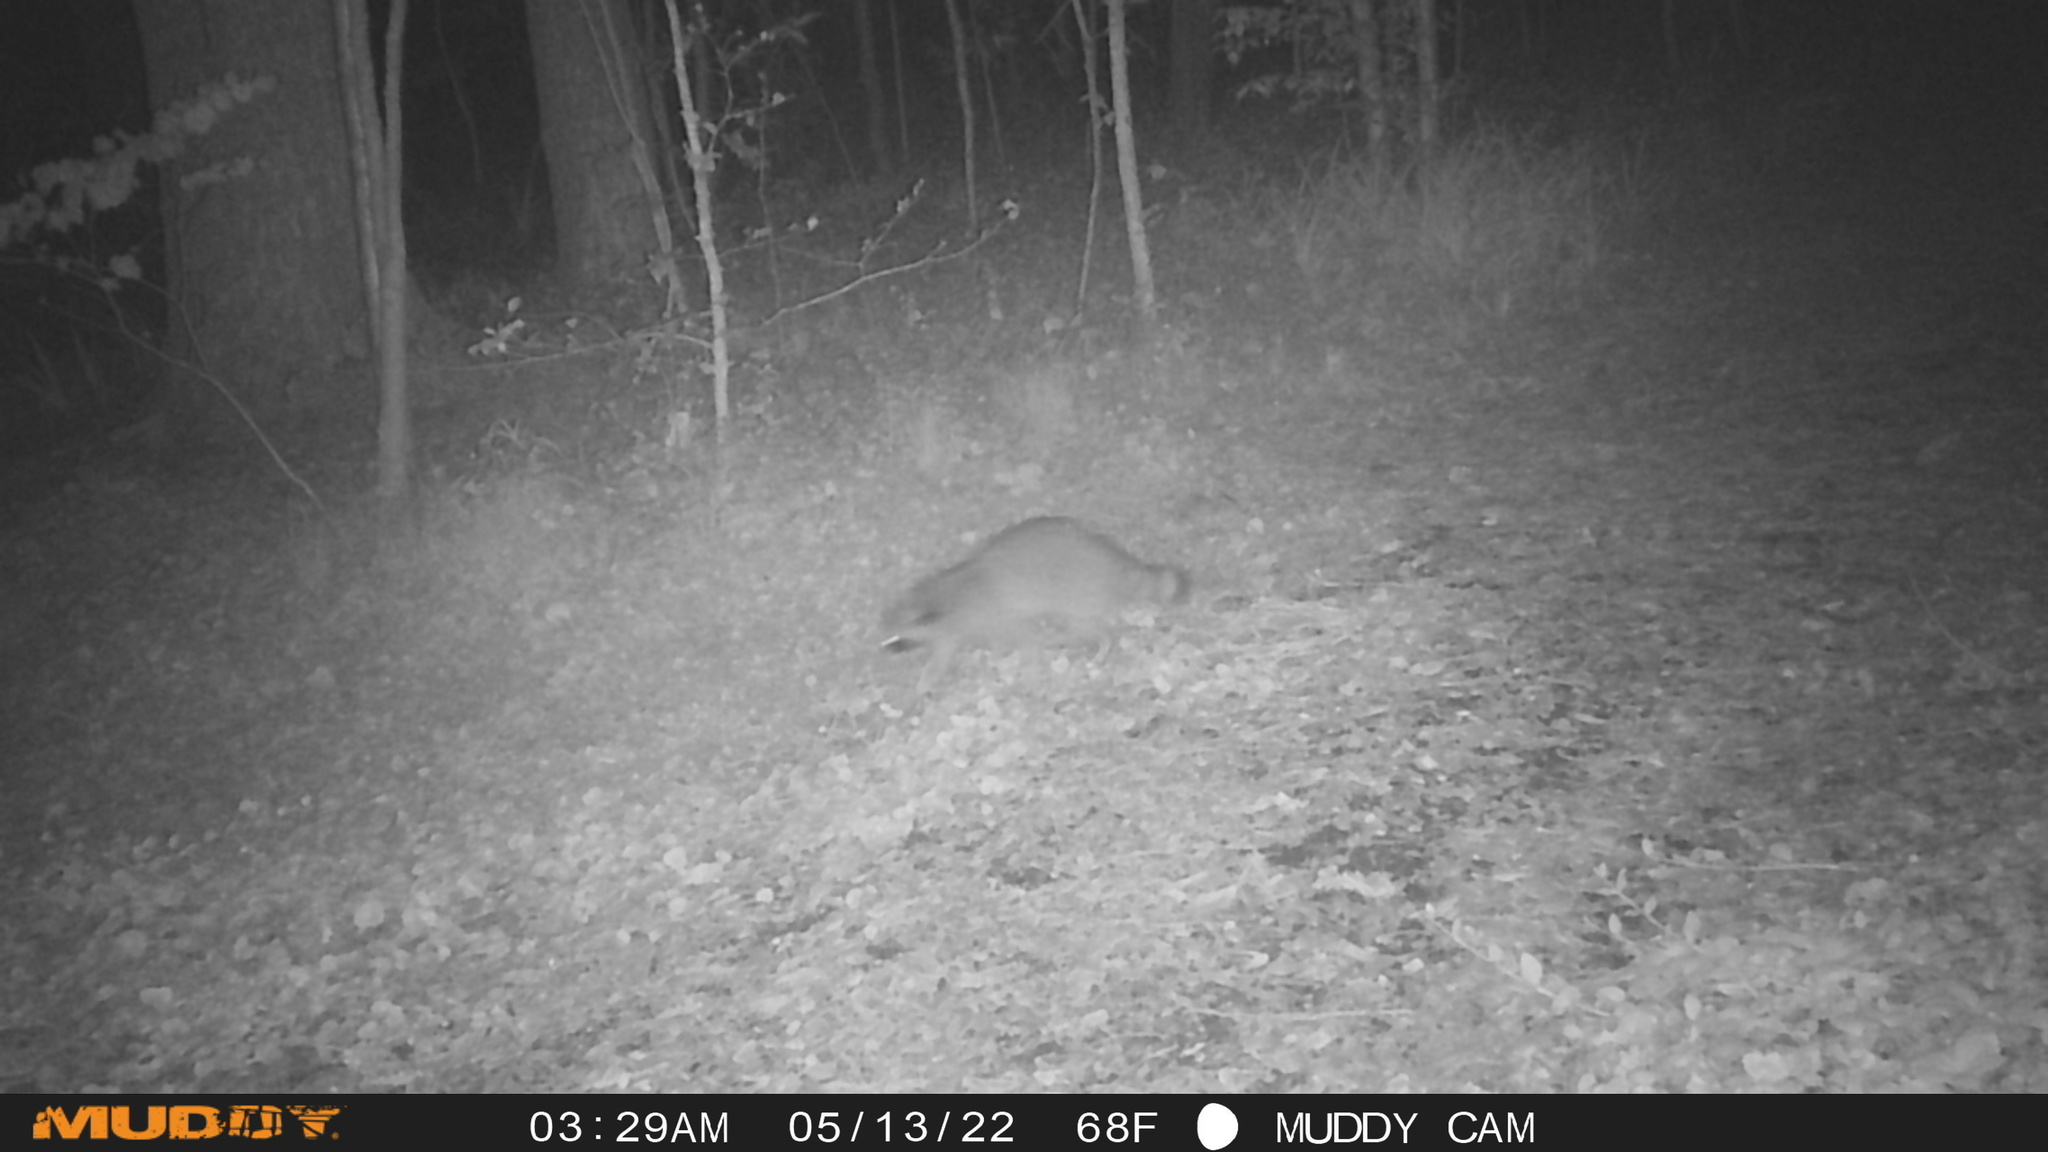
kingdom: Animalia
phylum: Chordata
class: Mammalia
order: Carnivora
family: Procyonidae
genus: Procyon
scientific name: Procyon lotor
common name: Raccoon
